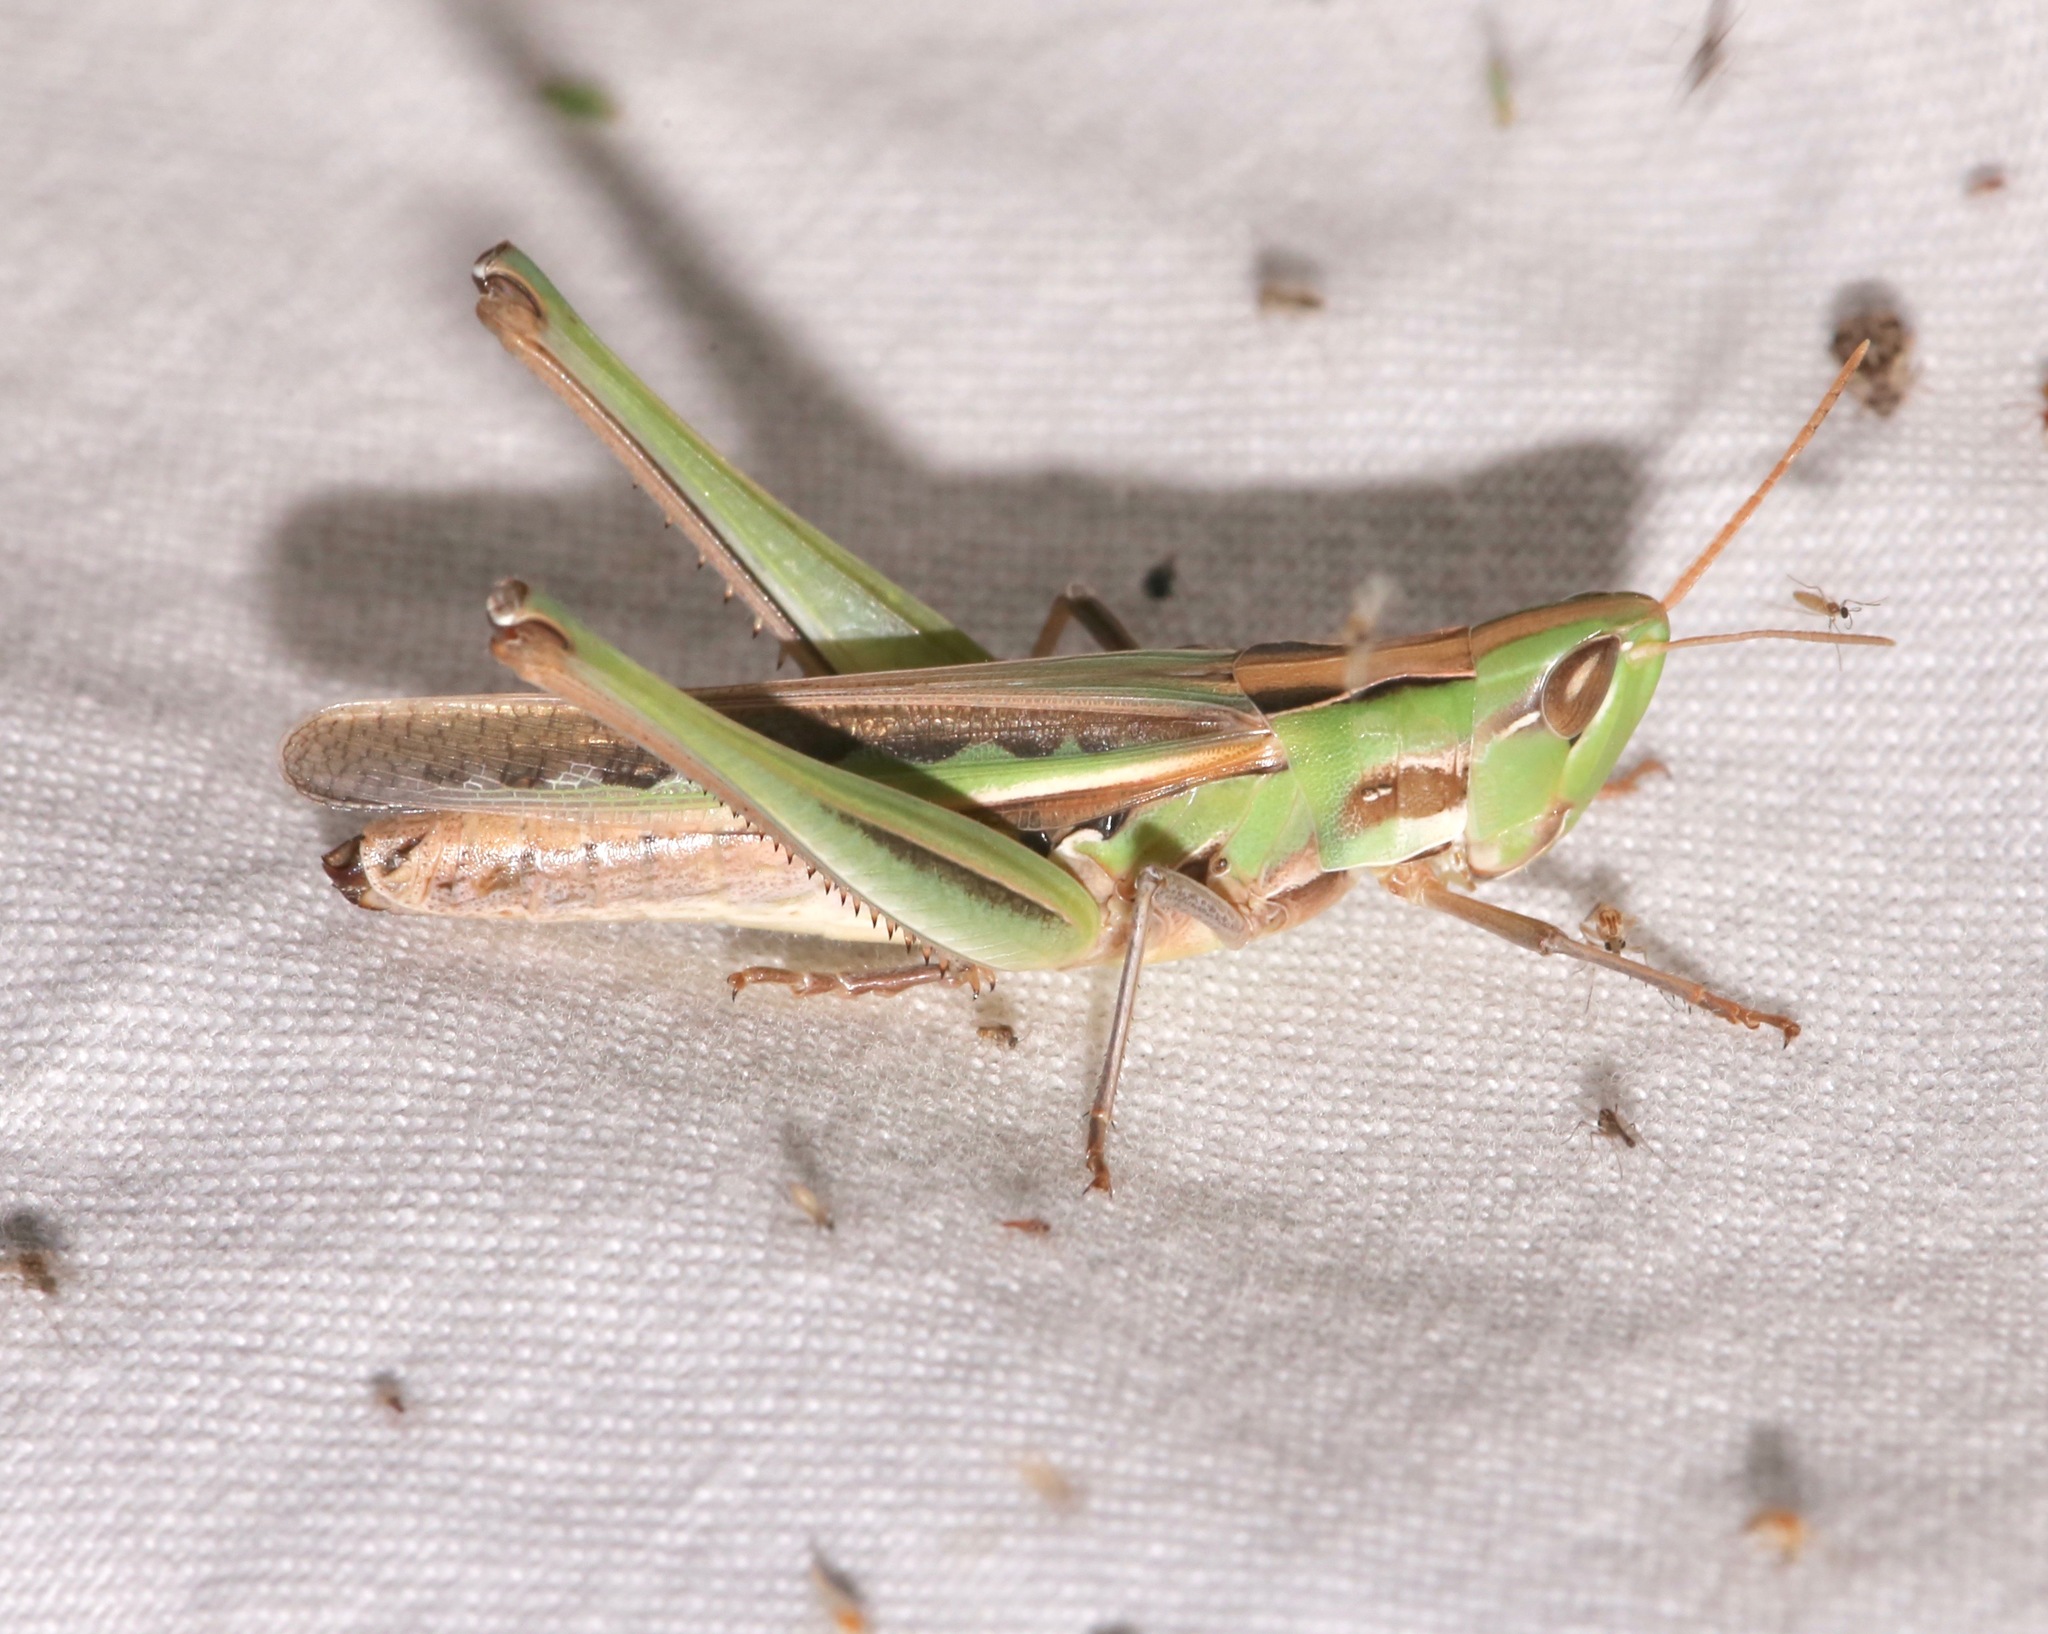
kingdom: Animalia
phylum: Arthropoda
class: Insecta
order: Orthoptera
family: Acrididae
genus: Syrbula
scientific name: Syrbula montezuma
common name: Montezuma's grasshopper
